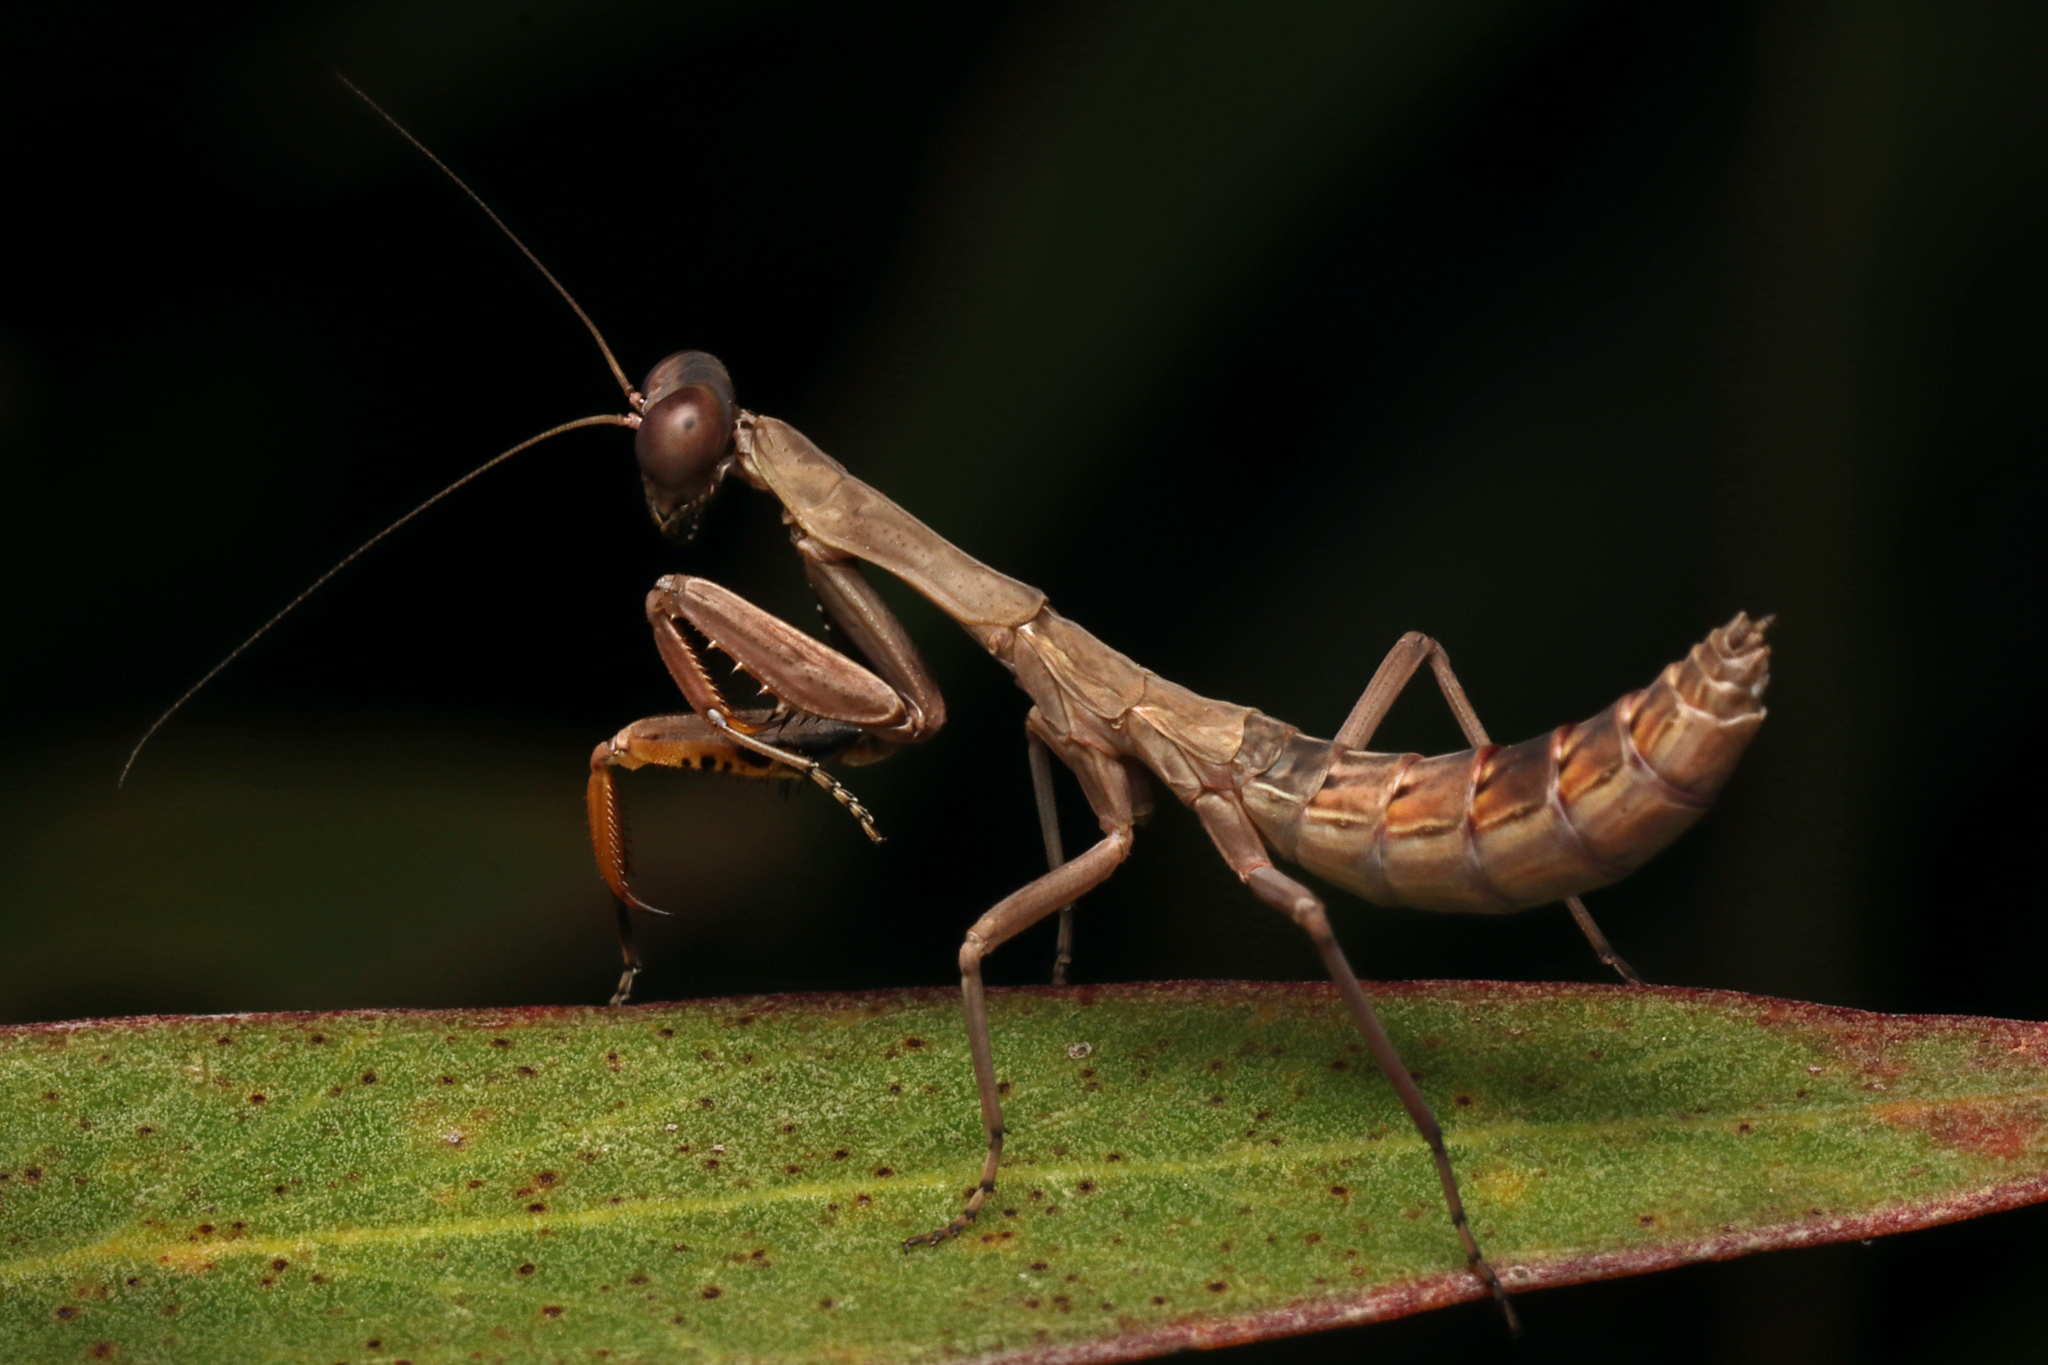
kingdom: Animalia
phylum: Arthropoda
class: Insecta
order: Mantodea
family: Mantidae
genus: Sphodropoda
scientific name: Sphodropoda tristis
